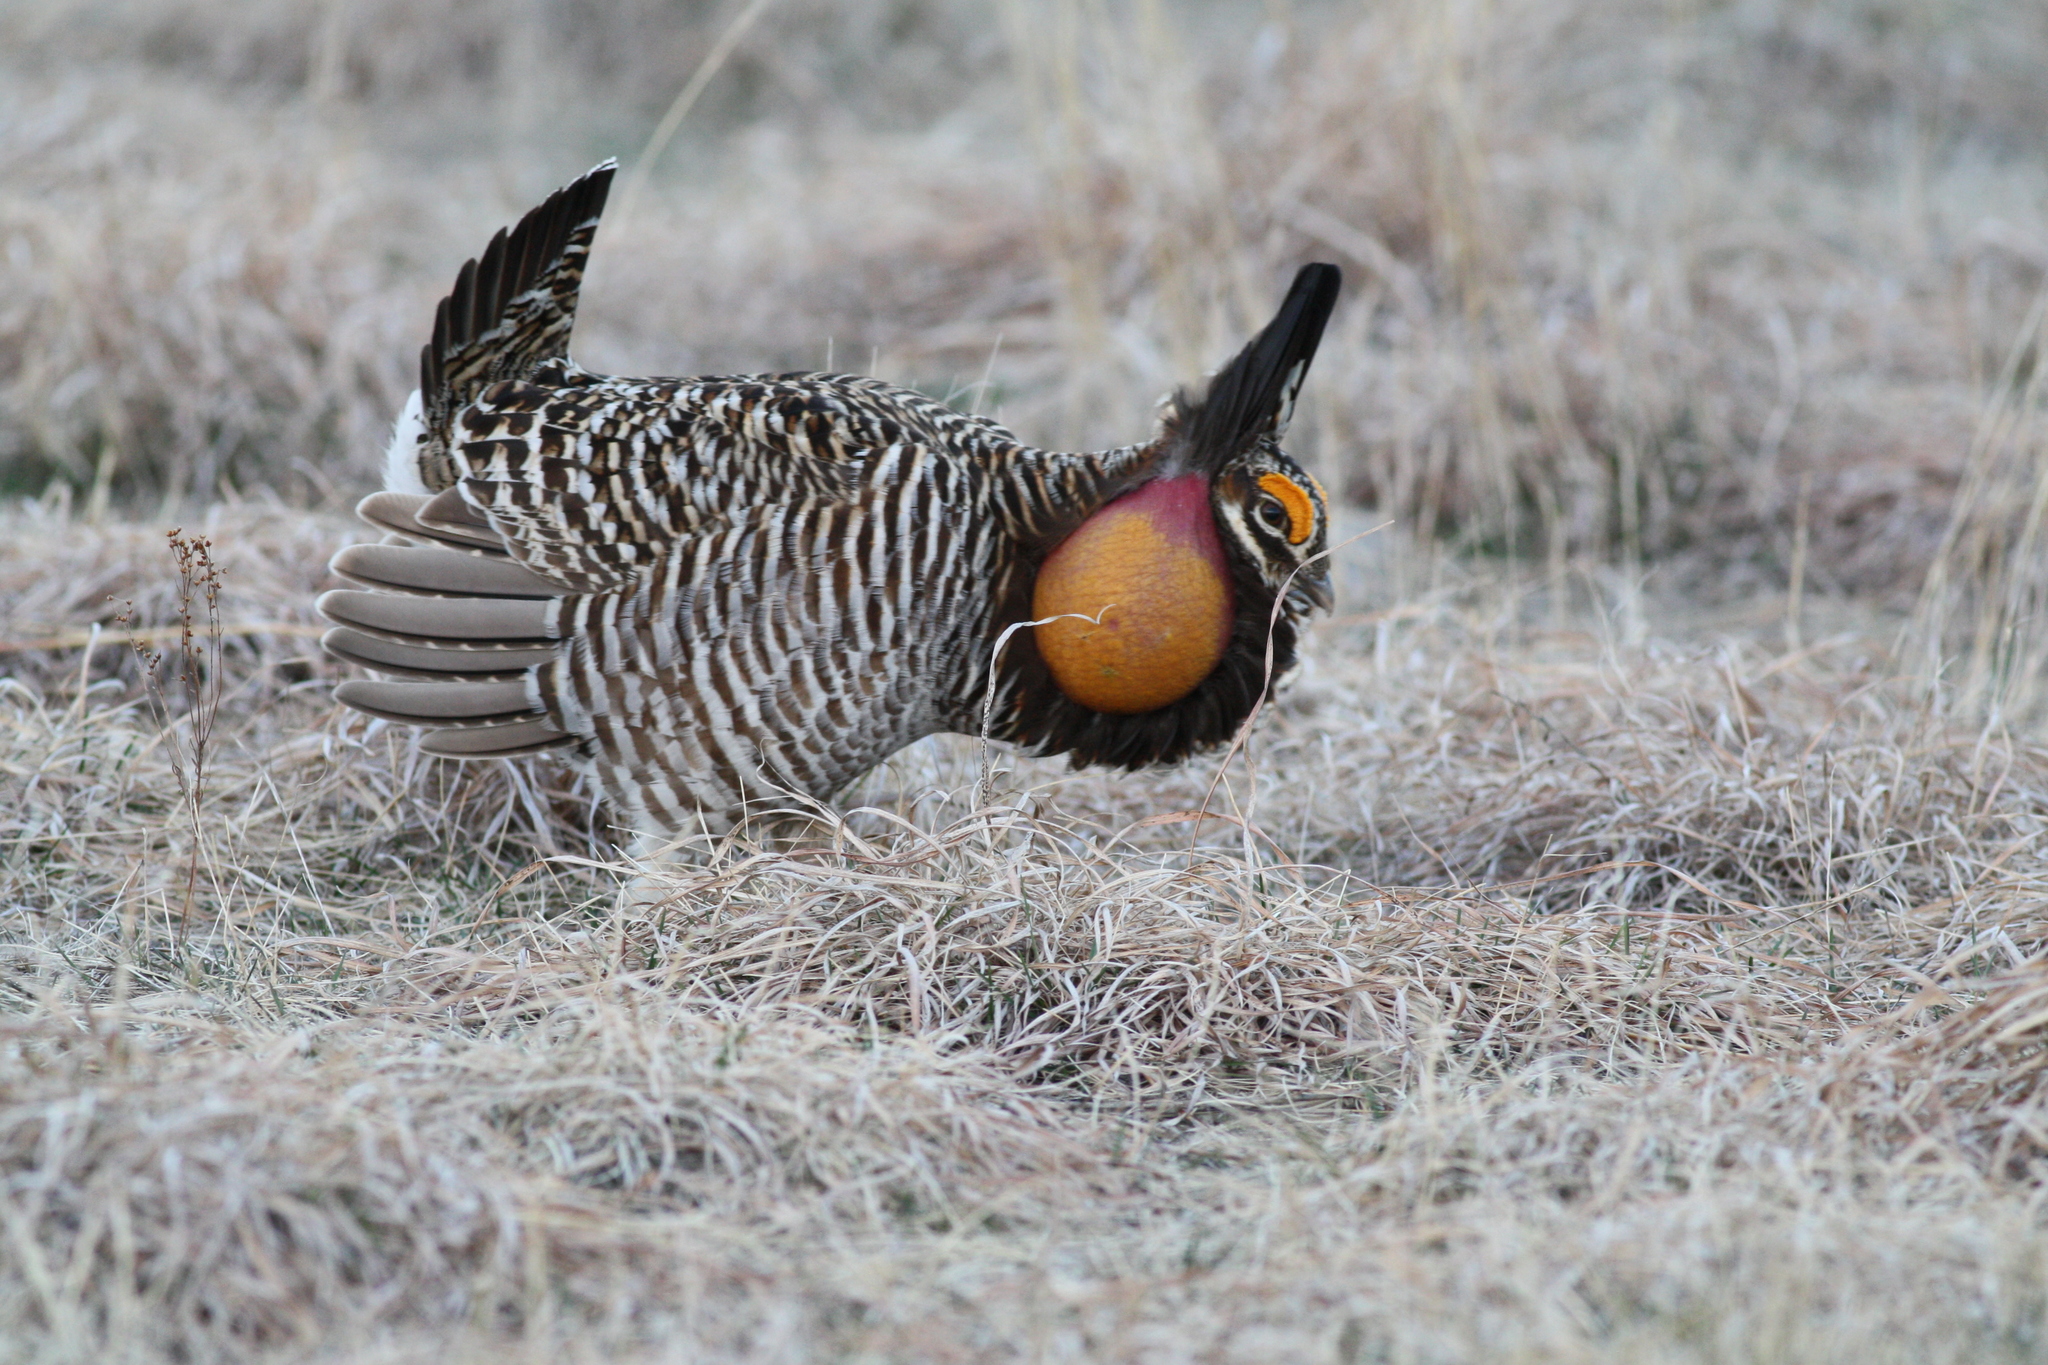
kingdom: Animalia
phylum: Chordata
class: Aves
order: Galliformes
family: Phasianidae
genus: Tympanuchus
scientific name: Tympanuchus cupido
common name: Greater prairie chicken
